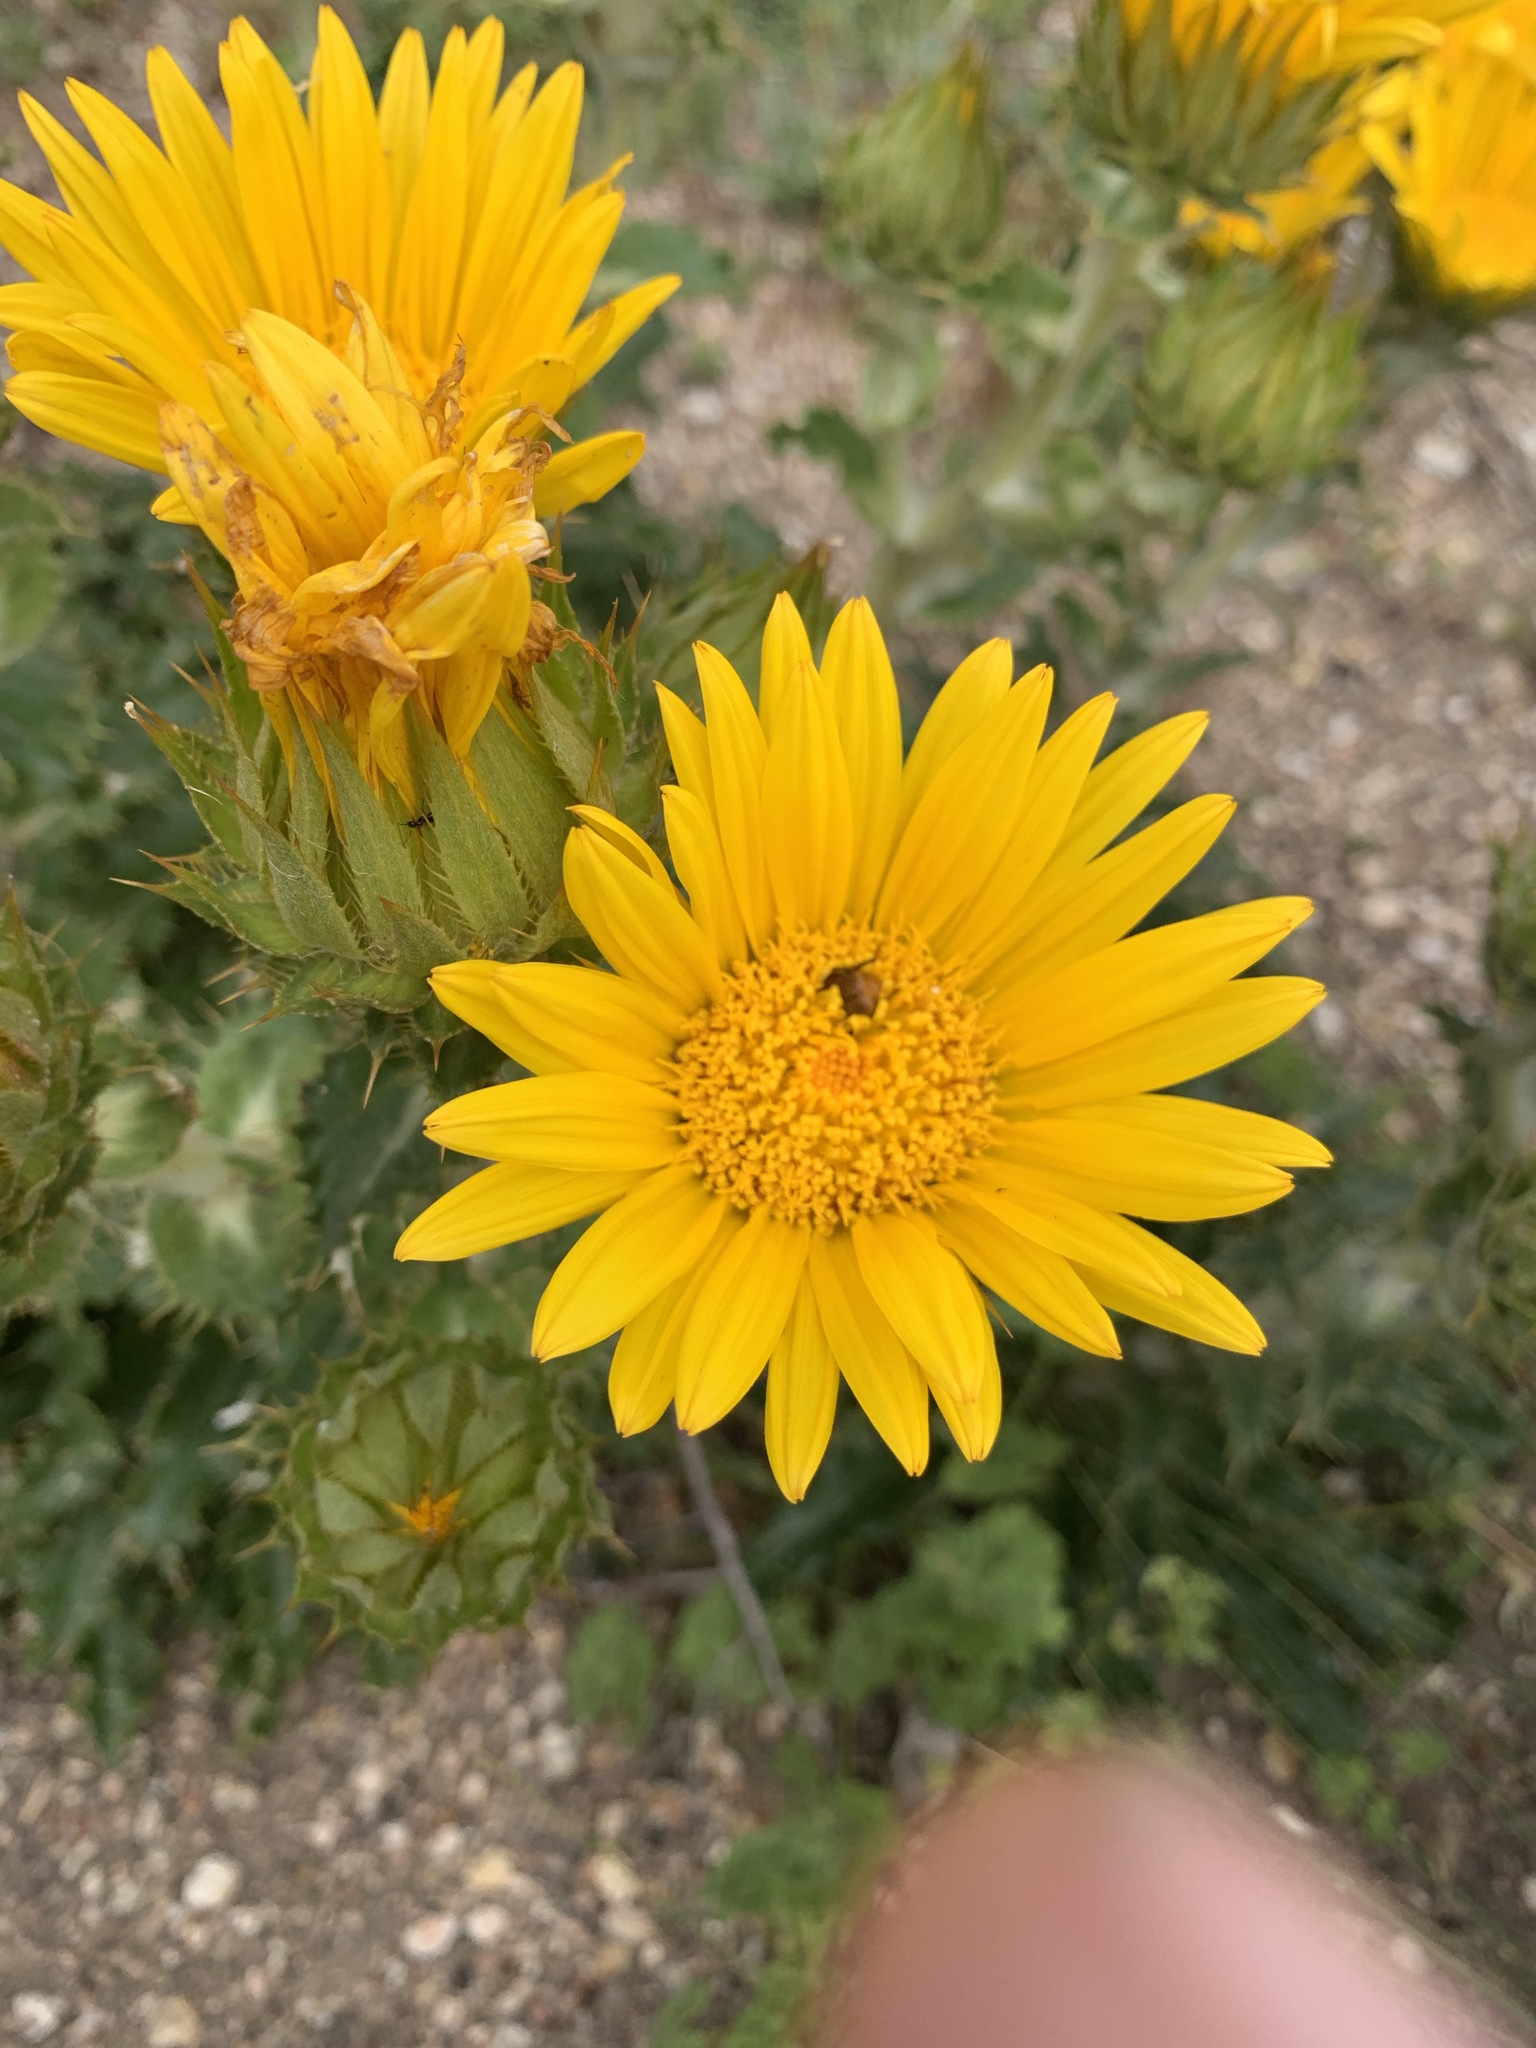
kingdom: Plantae
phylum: Tracheophyta
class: Magnoliopsida
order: Asterales
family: Asteraceae
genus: Berkheya
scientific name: Berkheya armata
